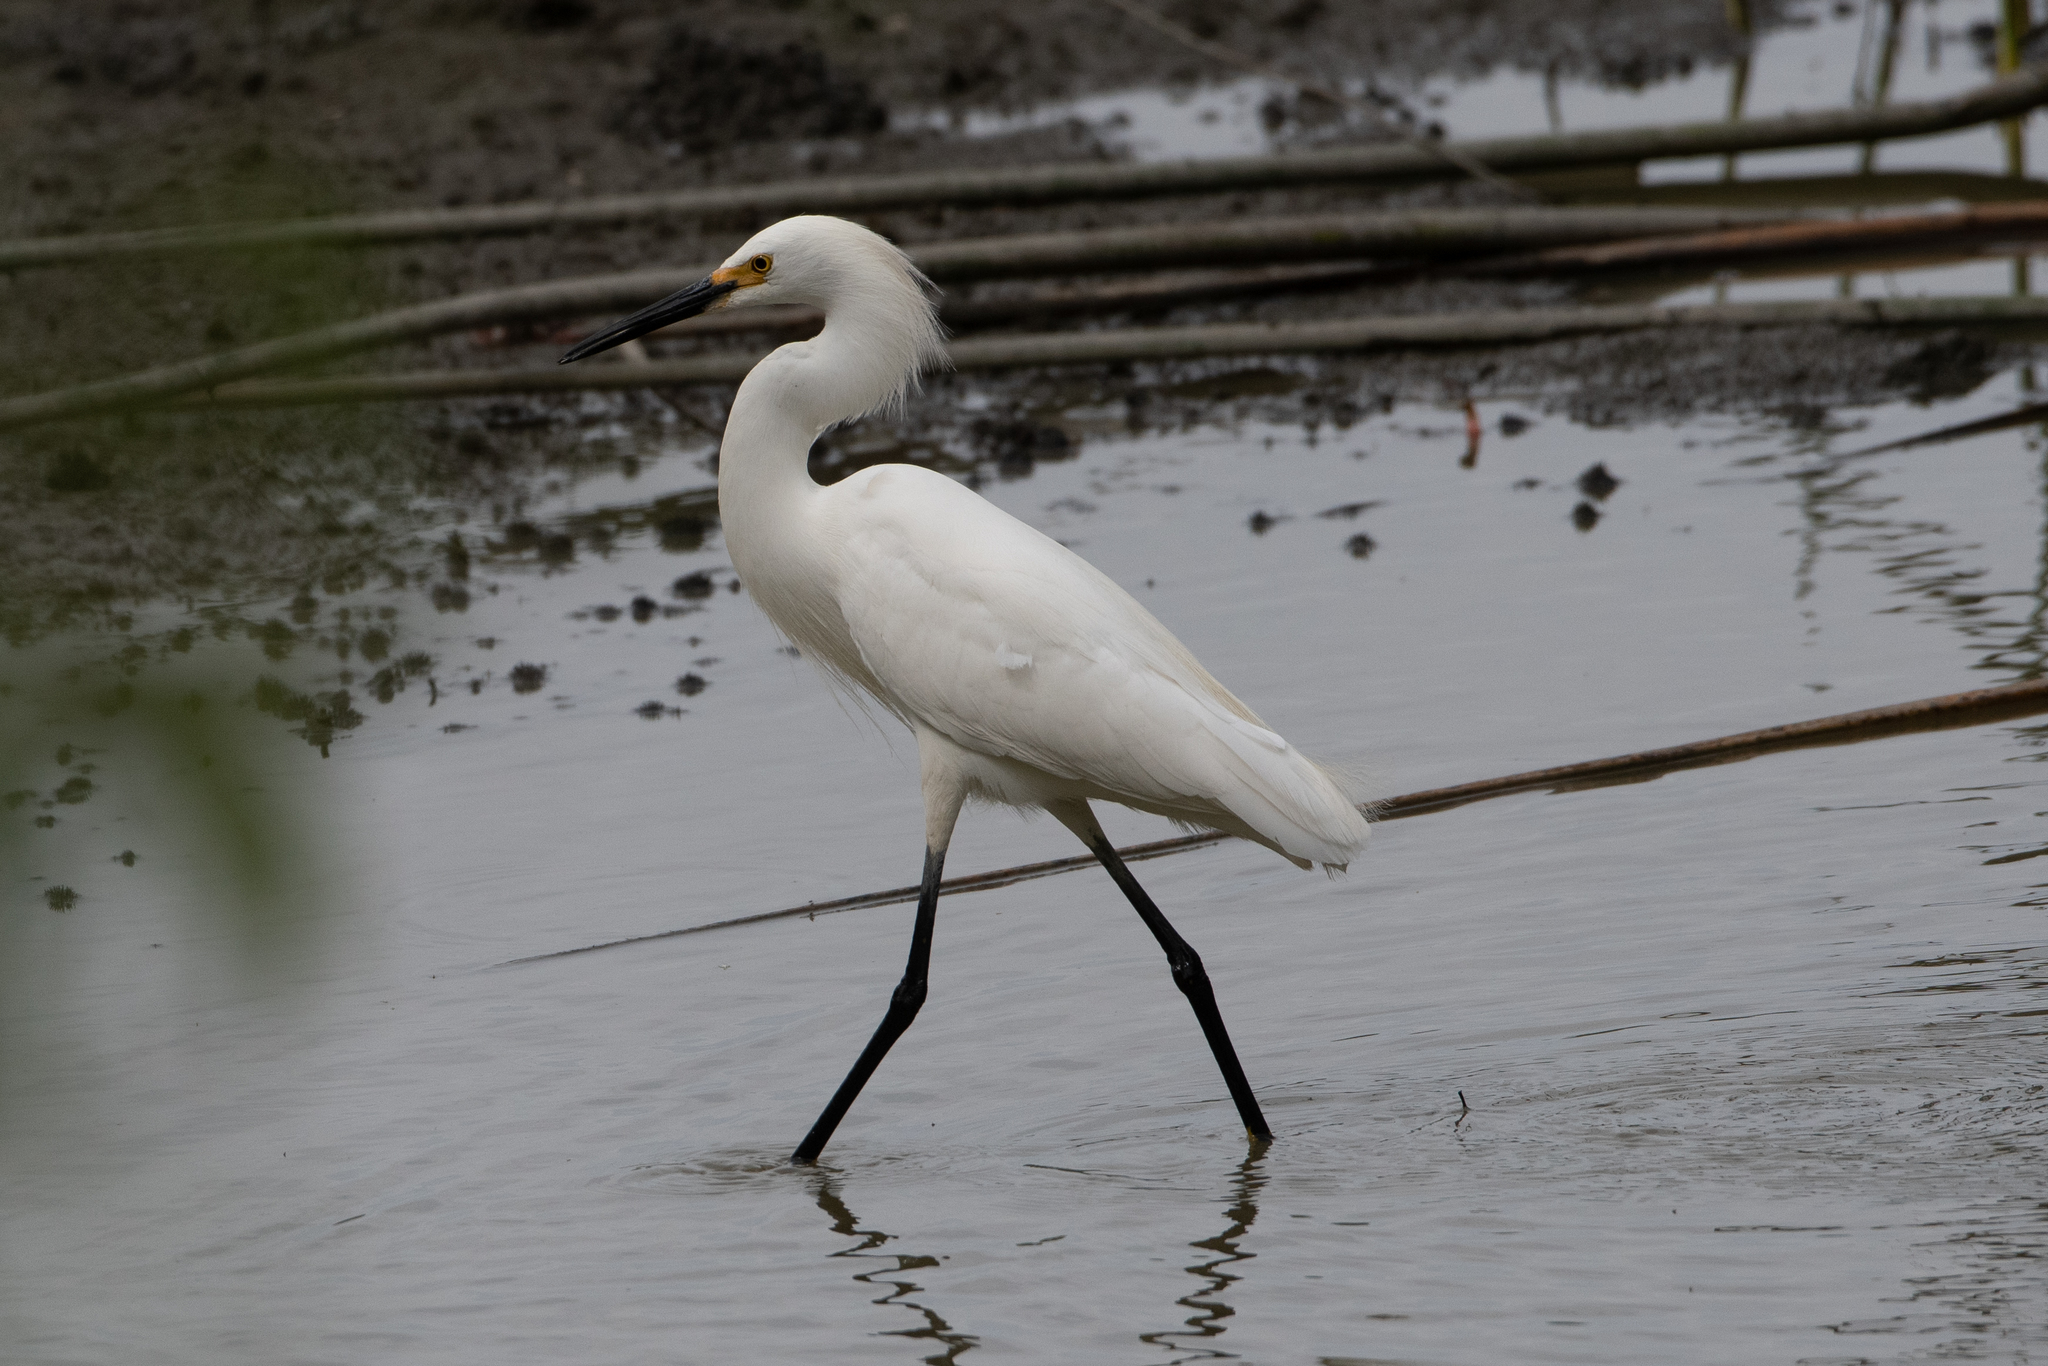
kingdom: Animalia
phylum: Chordata
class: Aves
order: Pelecaniformes
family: Ardeidae
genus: Egretta
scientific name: Egretta thula
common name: Snowy egret
